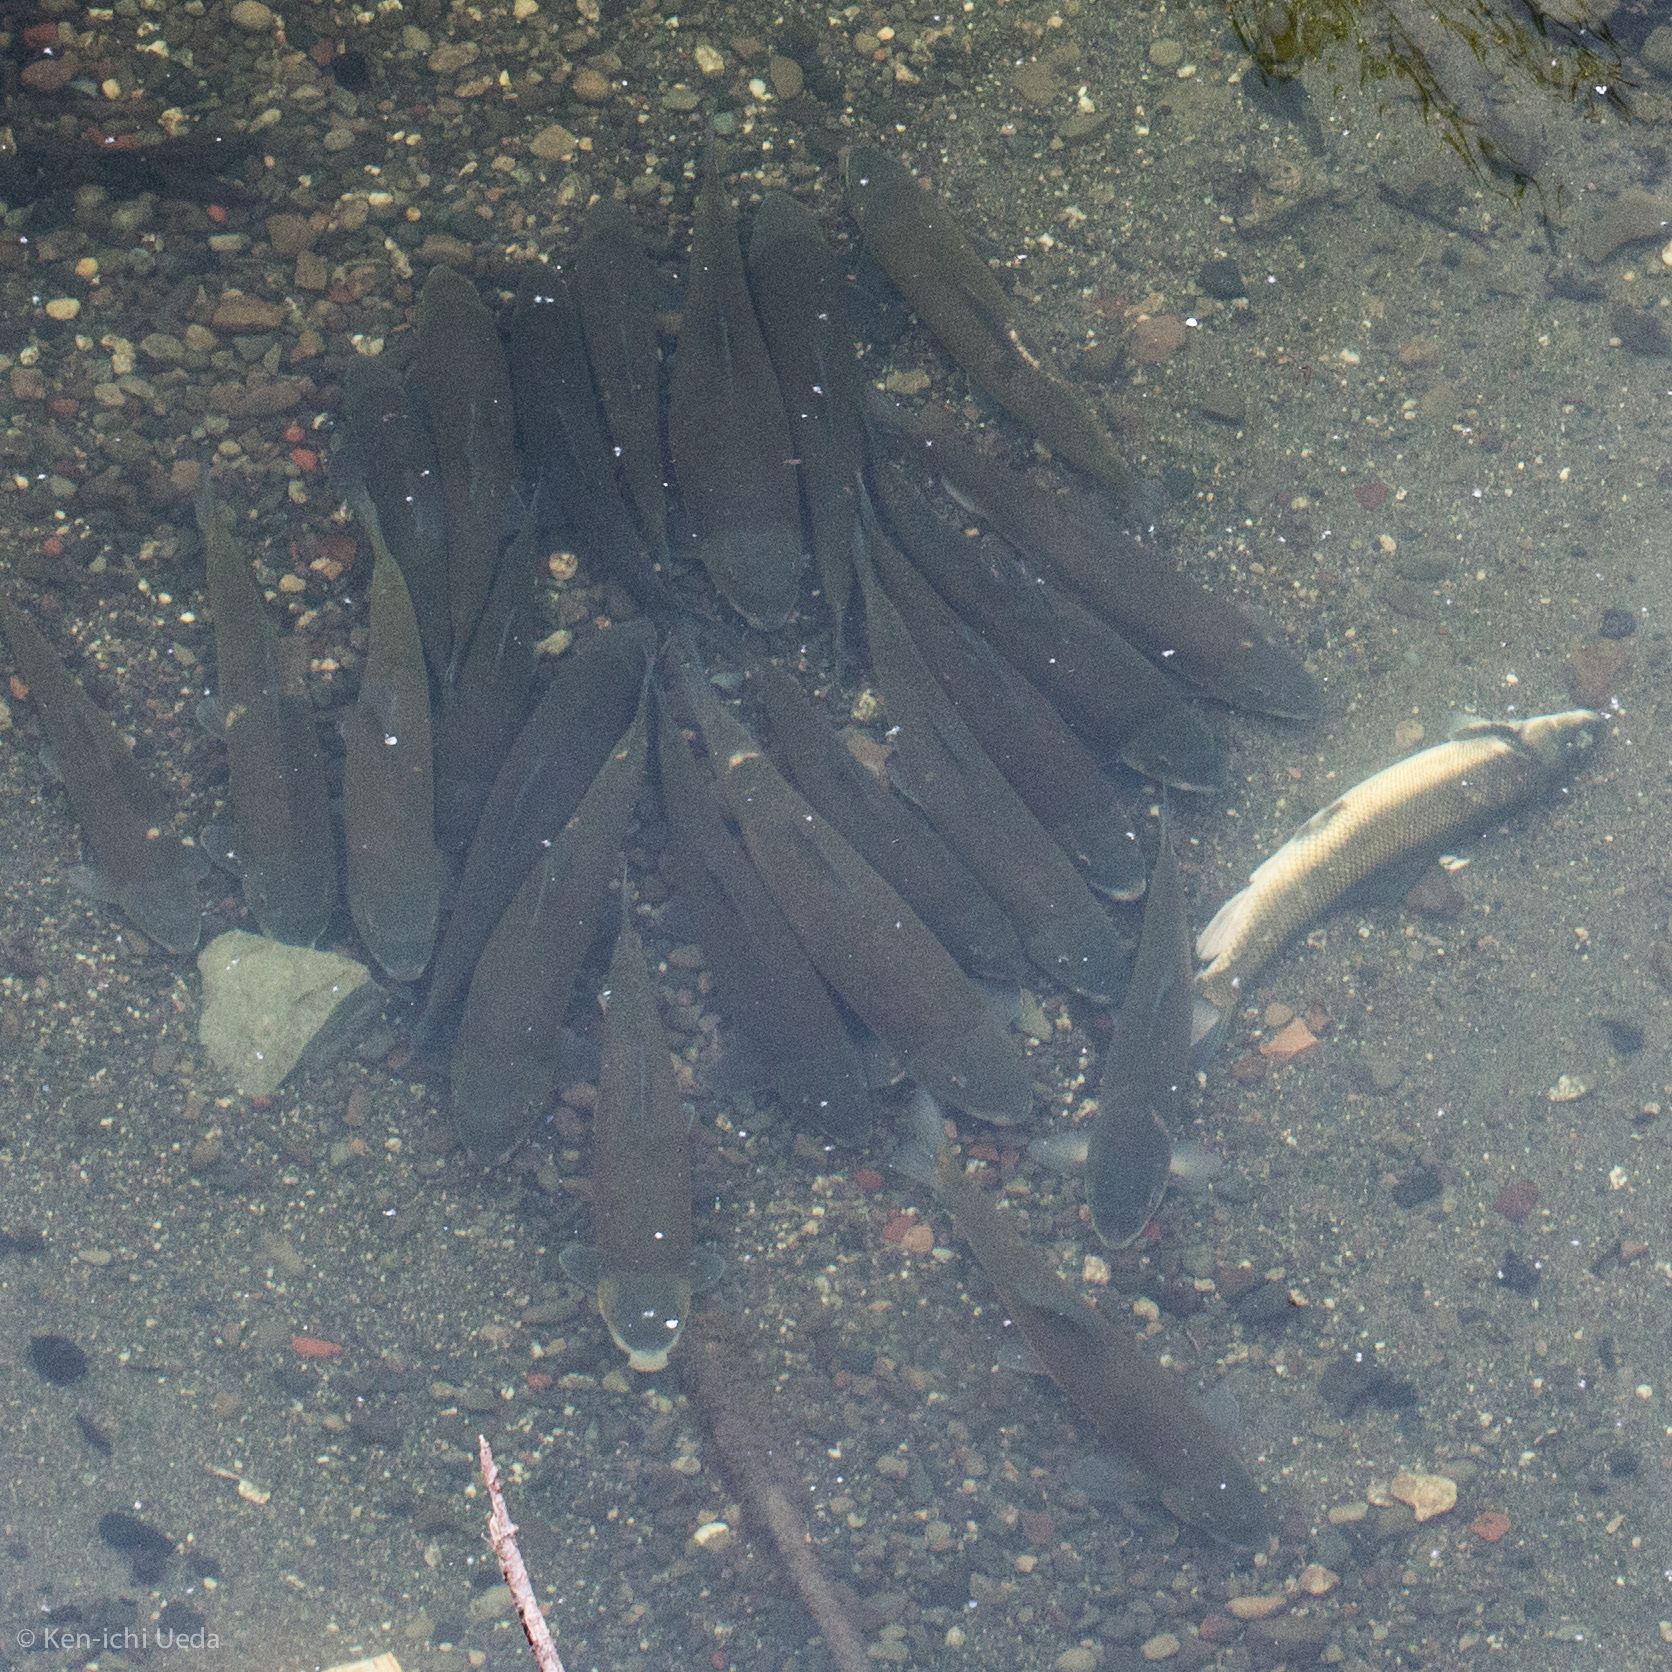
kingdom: Animalia
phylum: Chordata
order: Cypriniformes
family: Catostomidae
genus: Catostomus
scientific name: Catostomus occidentalis
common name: Goose lake sucker
